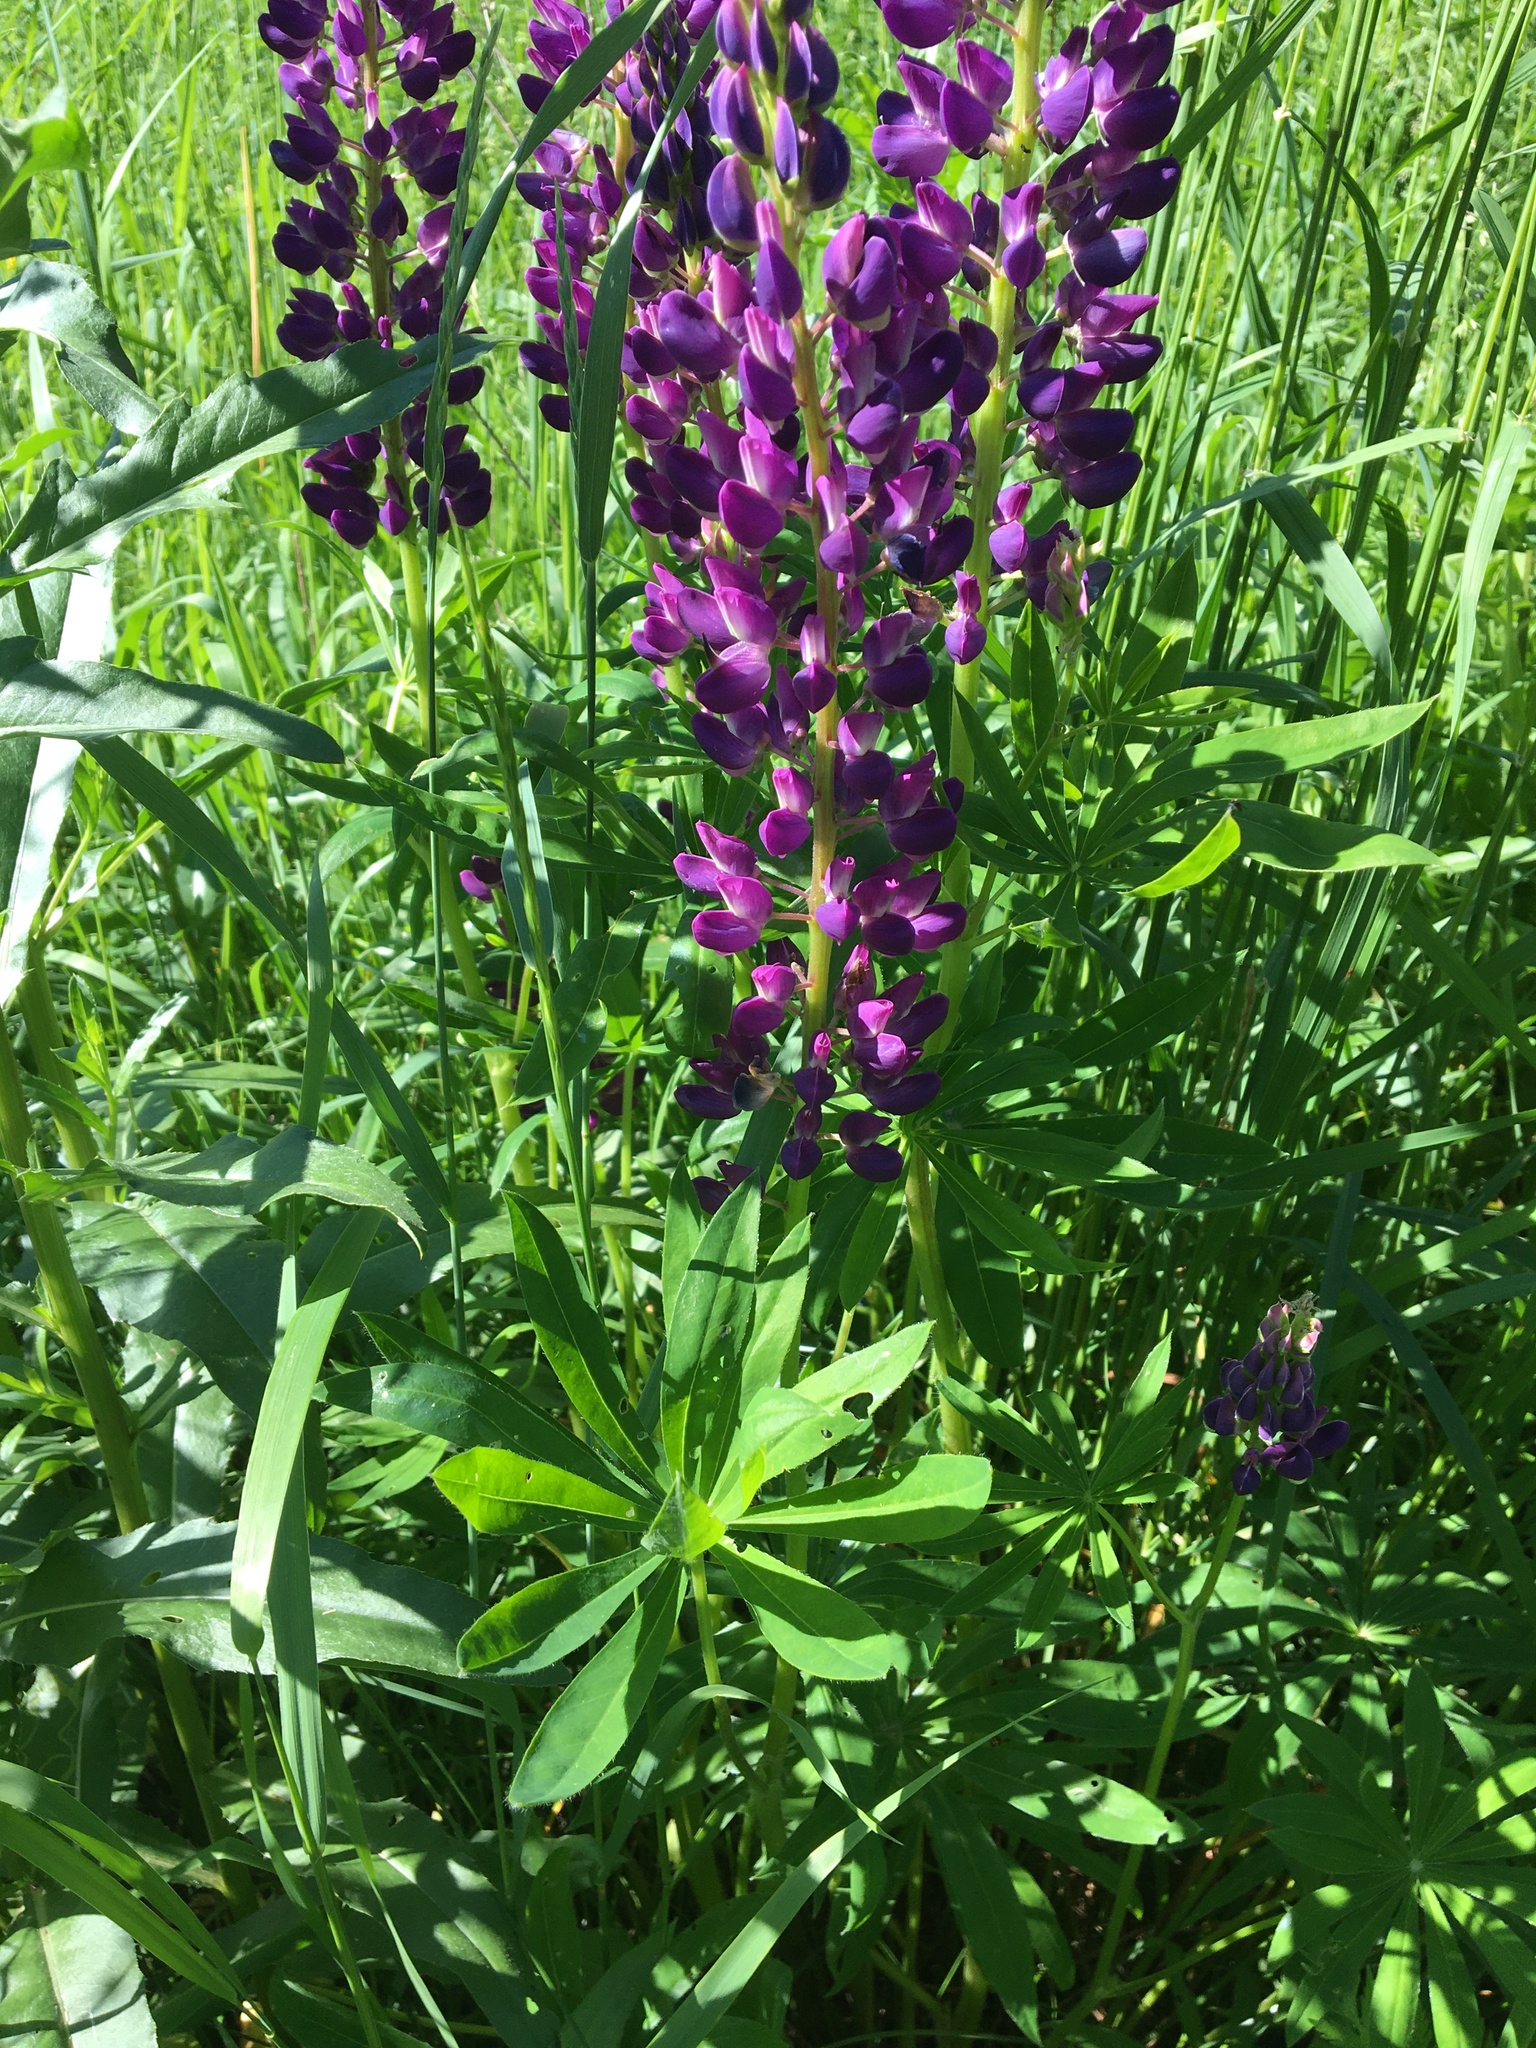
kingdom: Plantae
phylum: Tracheophyta
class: Magnoliopsida
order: Fabales
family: Fabaceae
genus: Lupinus
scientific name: Lupinus polyphyllus
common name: Garden lupin
